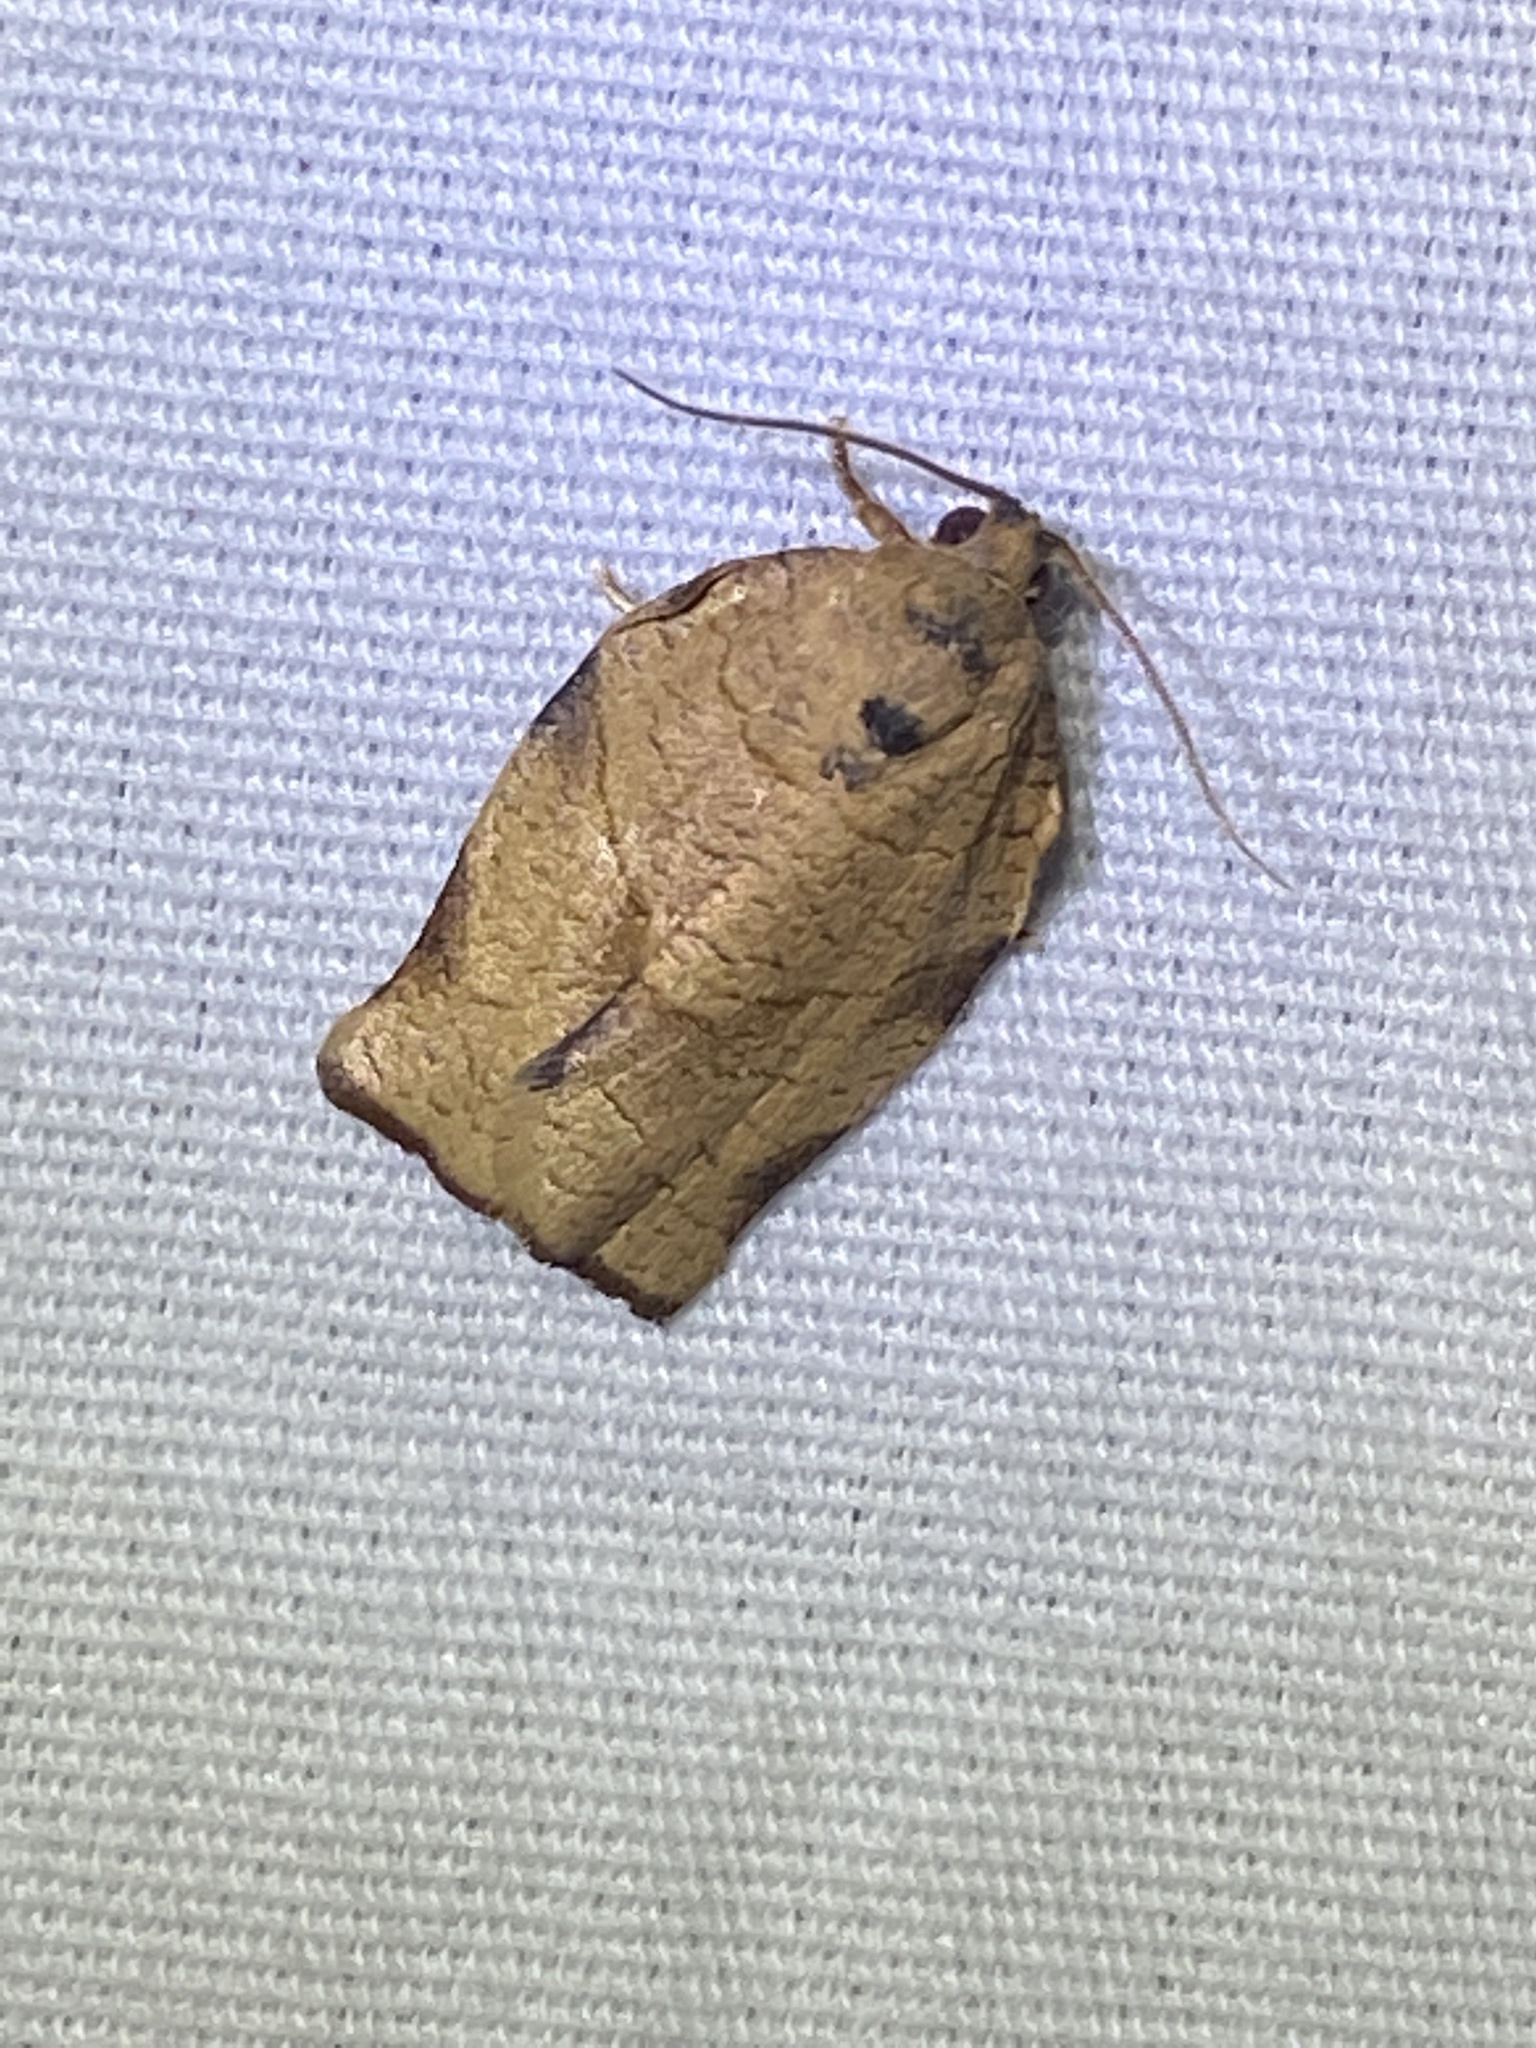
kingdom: Animalia
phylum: Arthropoda
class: Insecta
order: Lepidoptera
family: Tortricidae
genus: Choristoneura
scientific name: Choristoneura rosaceana
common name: Oblique-banded leafroller moth
